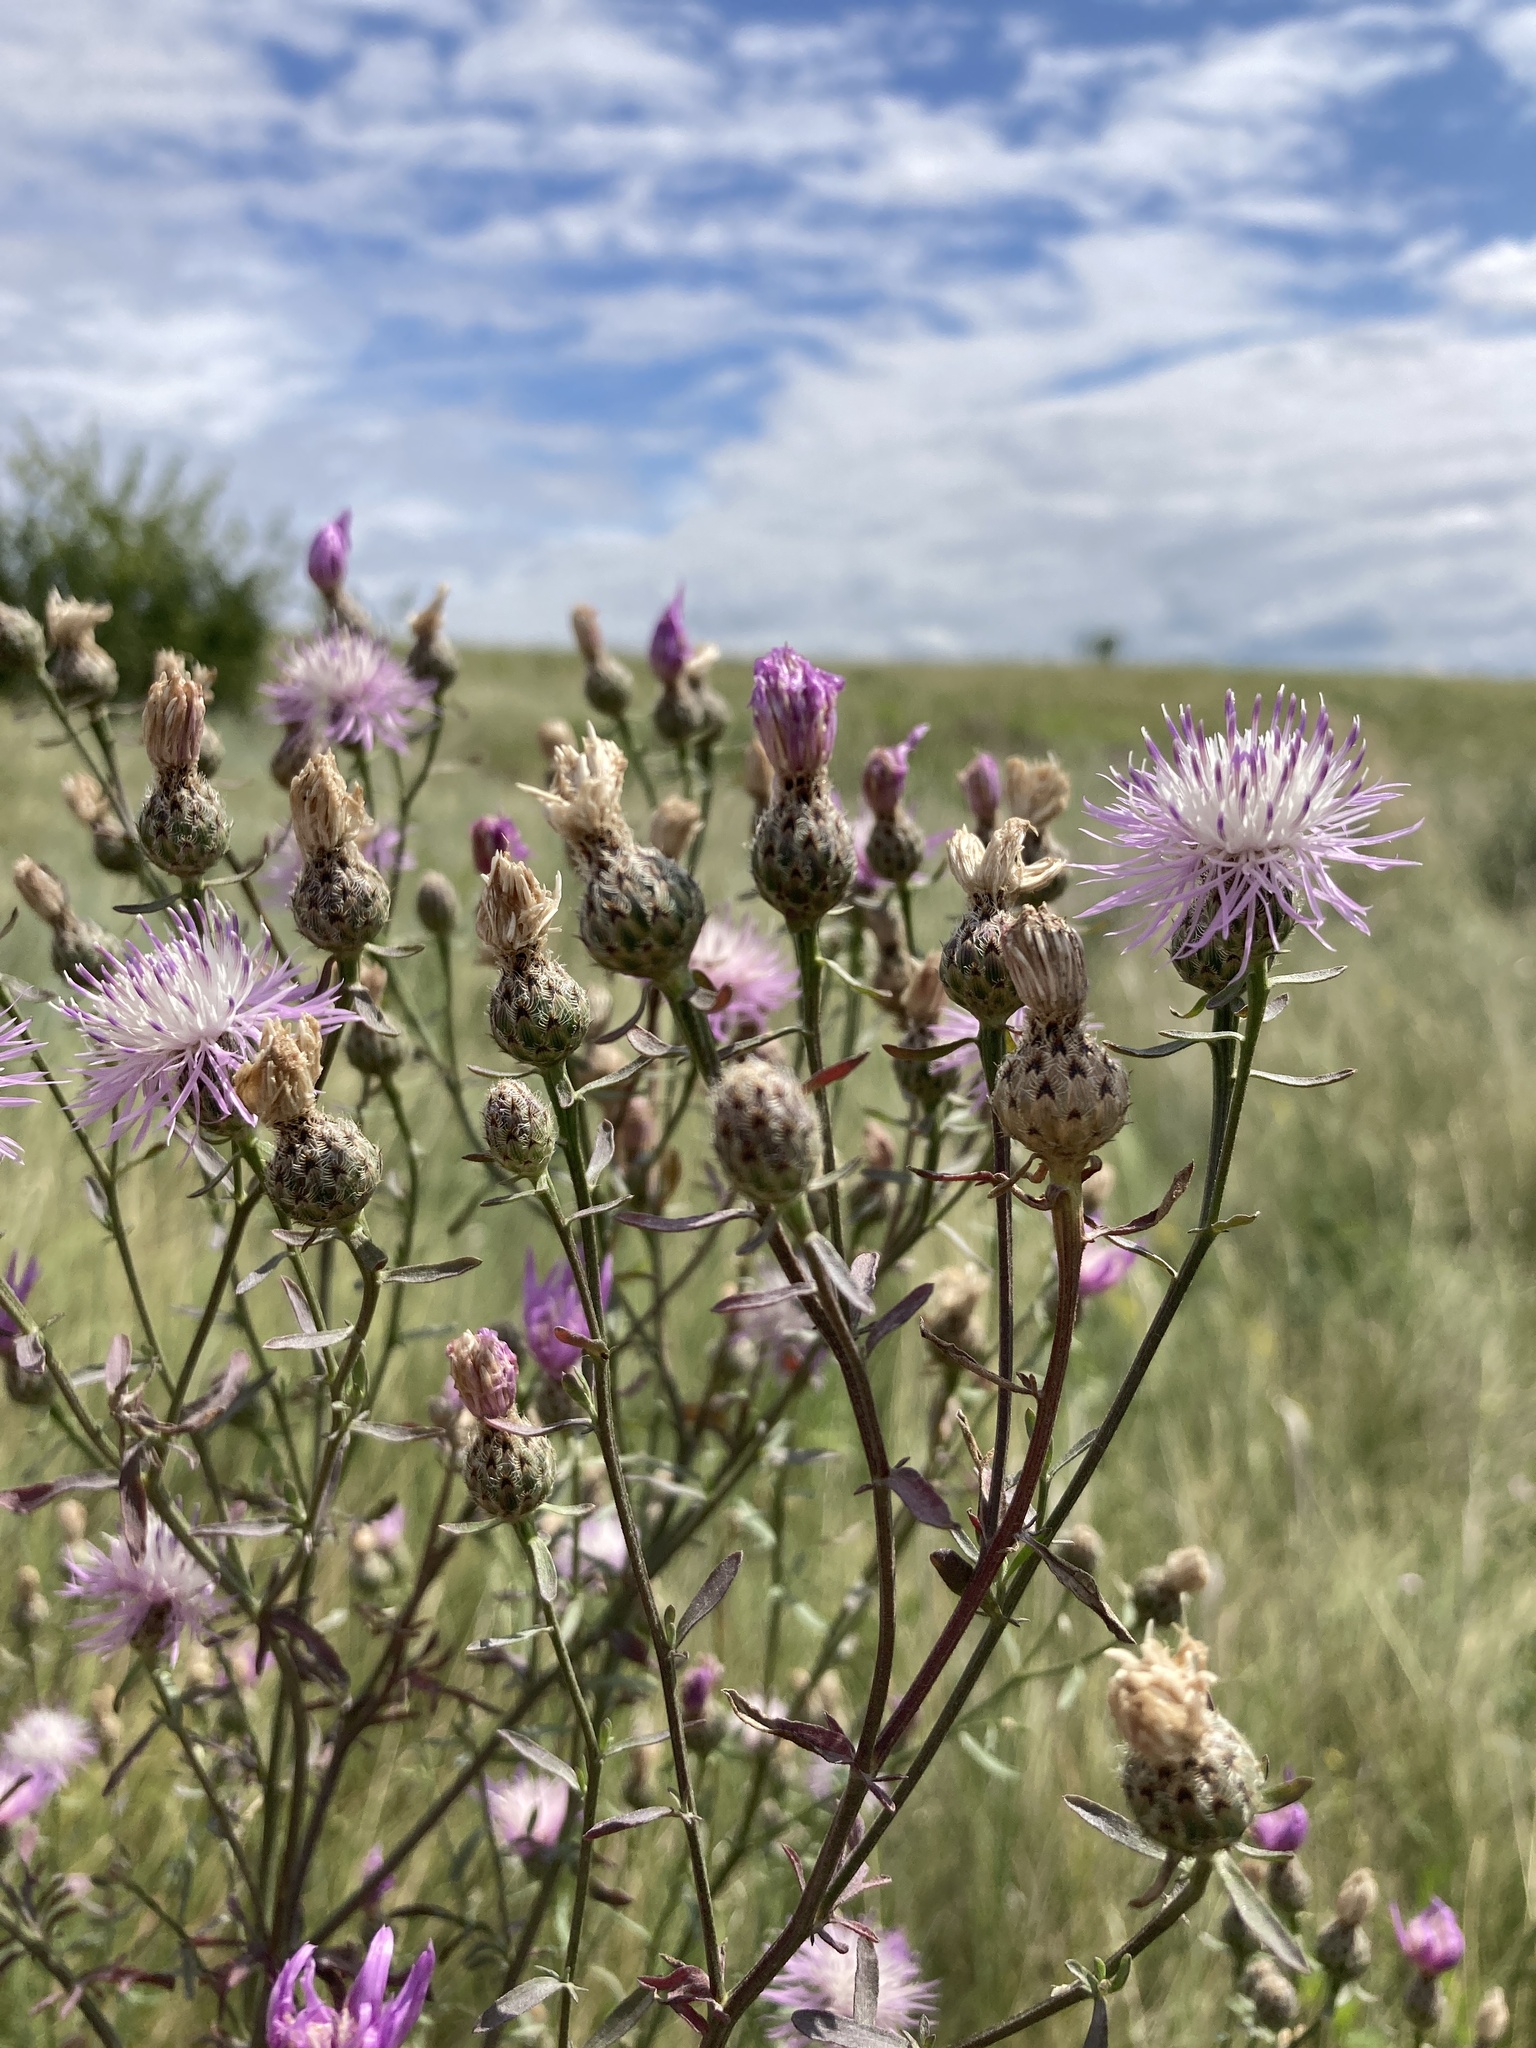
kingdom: Plantae
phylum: Tracheophyta
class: Magnoliopsida
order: Asterales
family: Asteraceae
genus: Centaurea
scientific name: Centaurea stoebe
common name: Spotted knapweed
